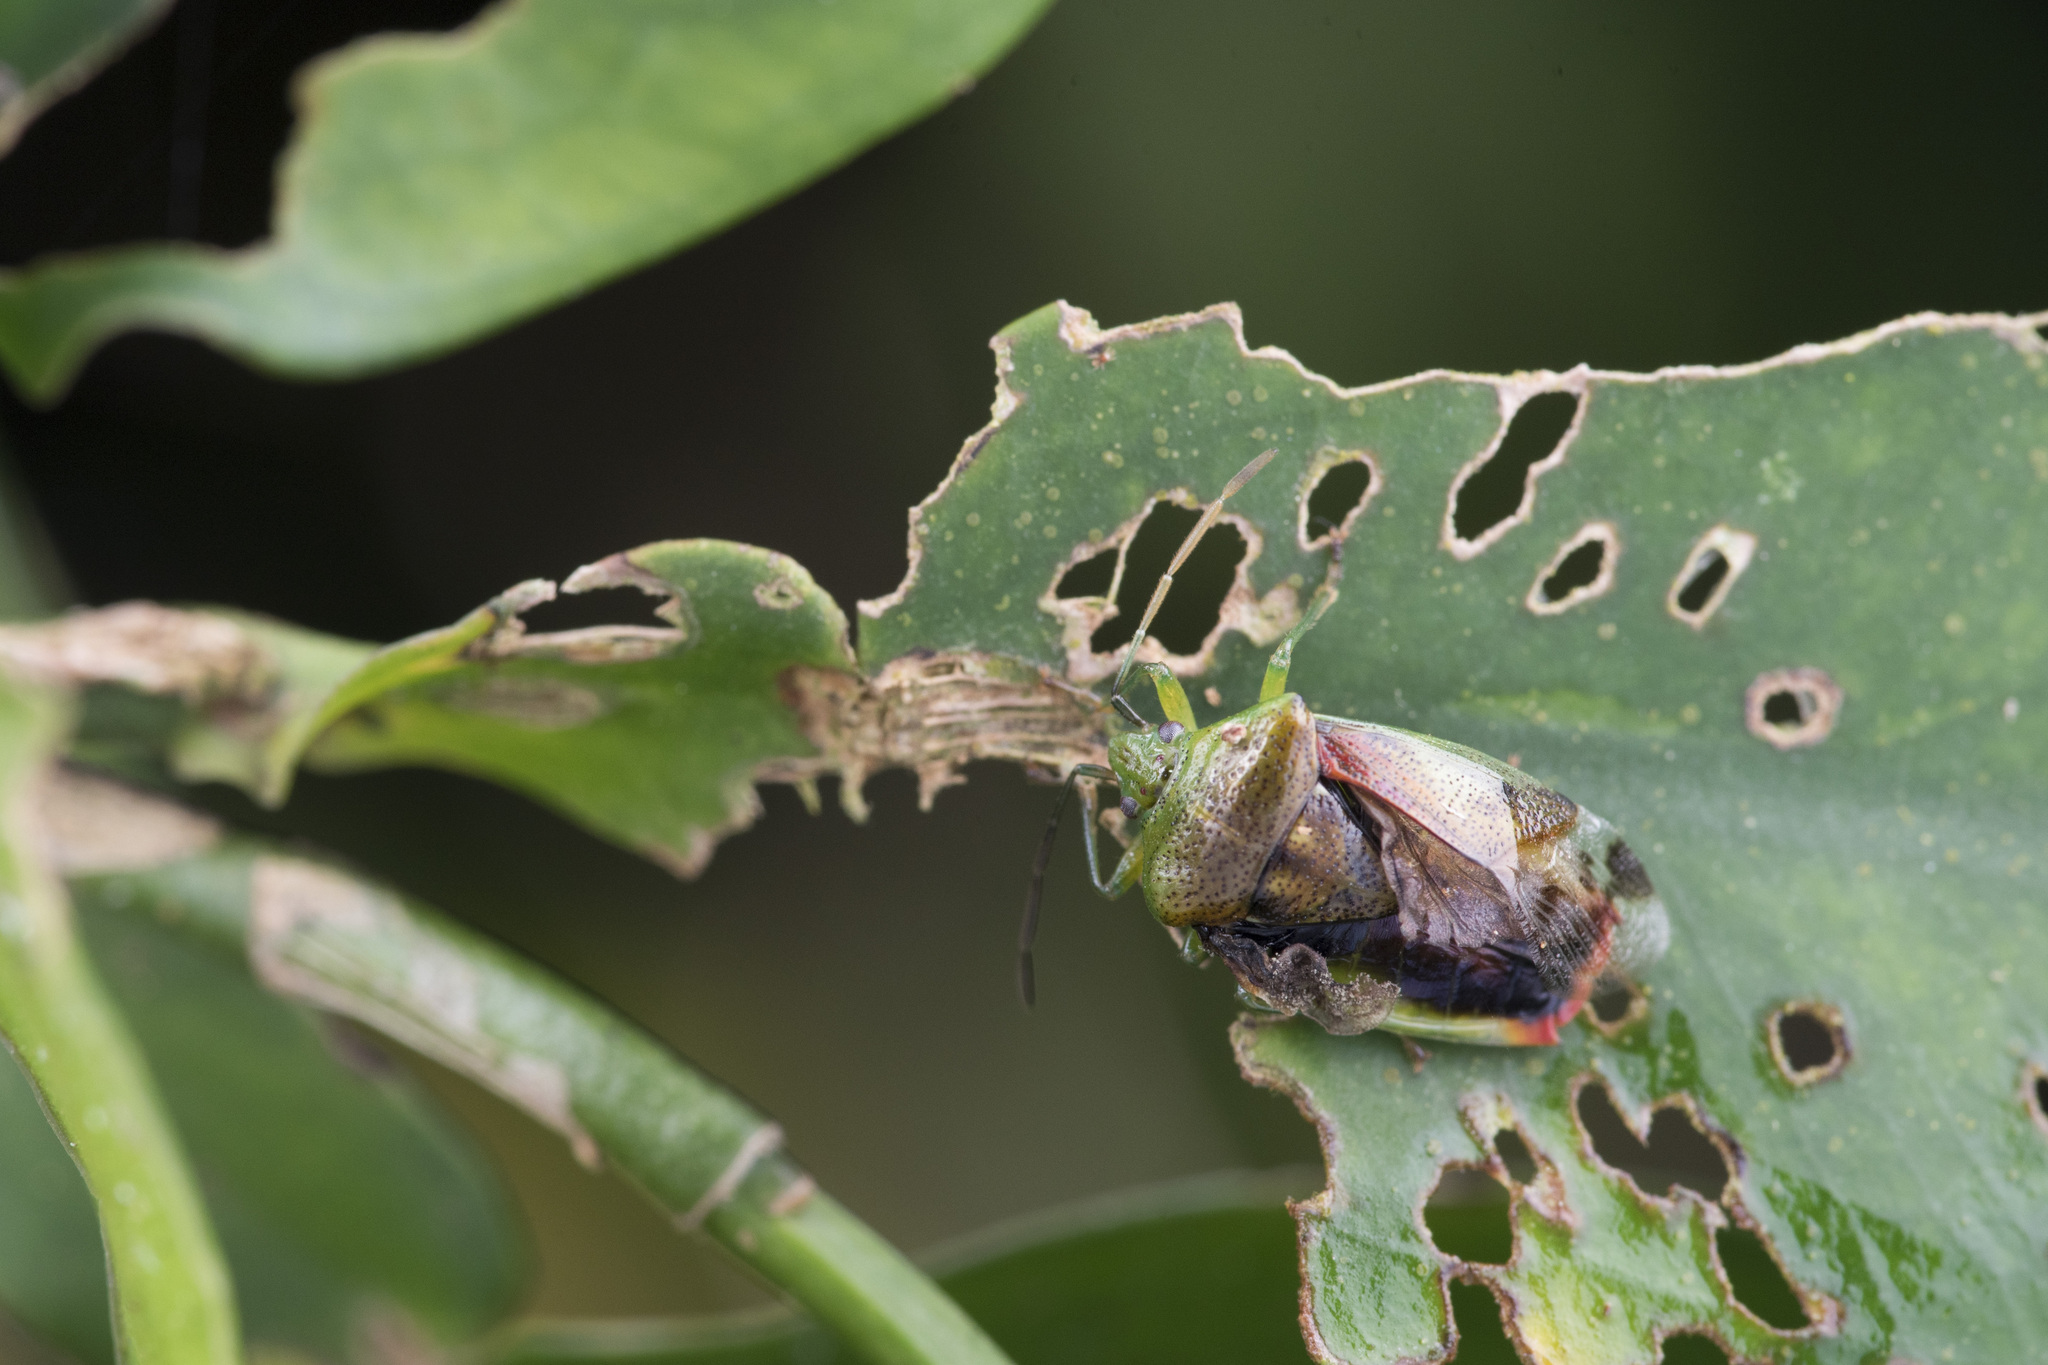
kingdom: Animalia
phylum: Arthropoda
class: Insecta
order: Hemiptera
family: Acanthosomatidae
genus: Elasmostethus
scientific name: Elasmostethus nubilus
